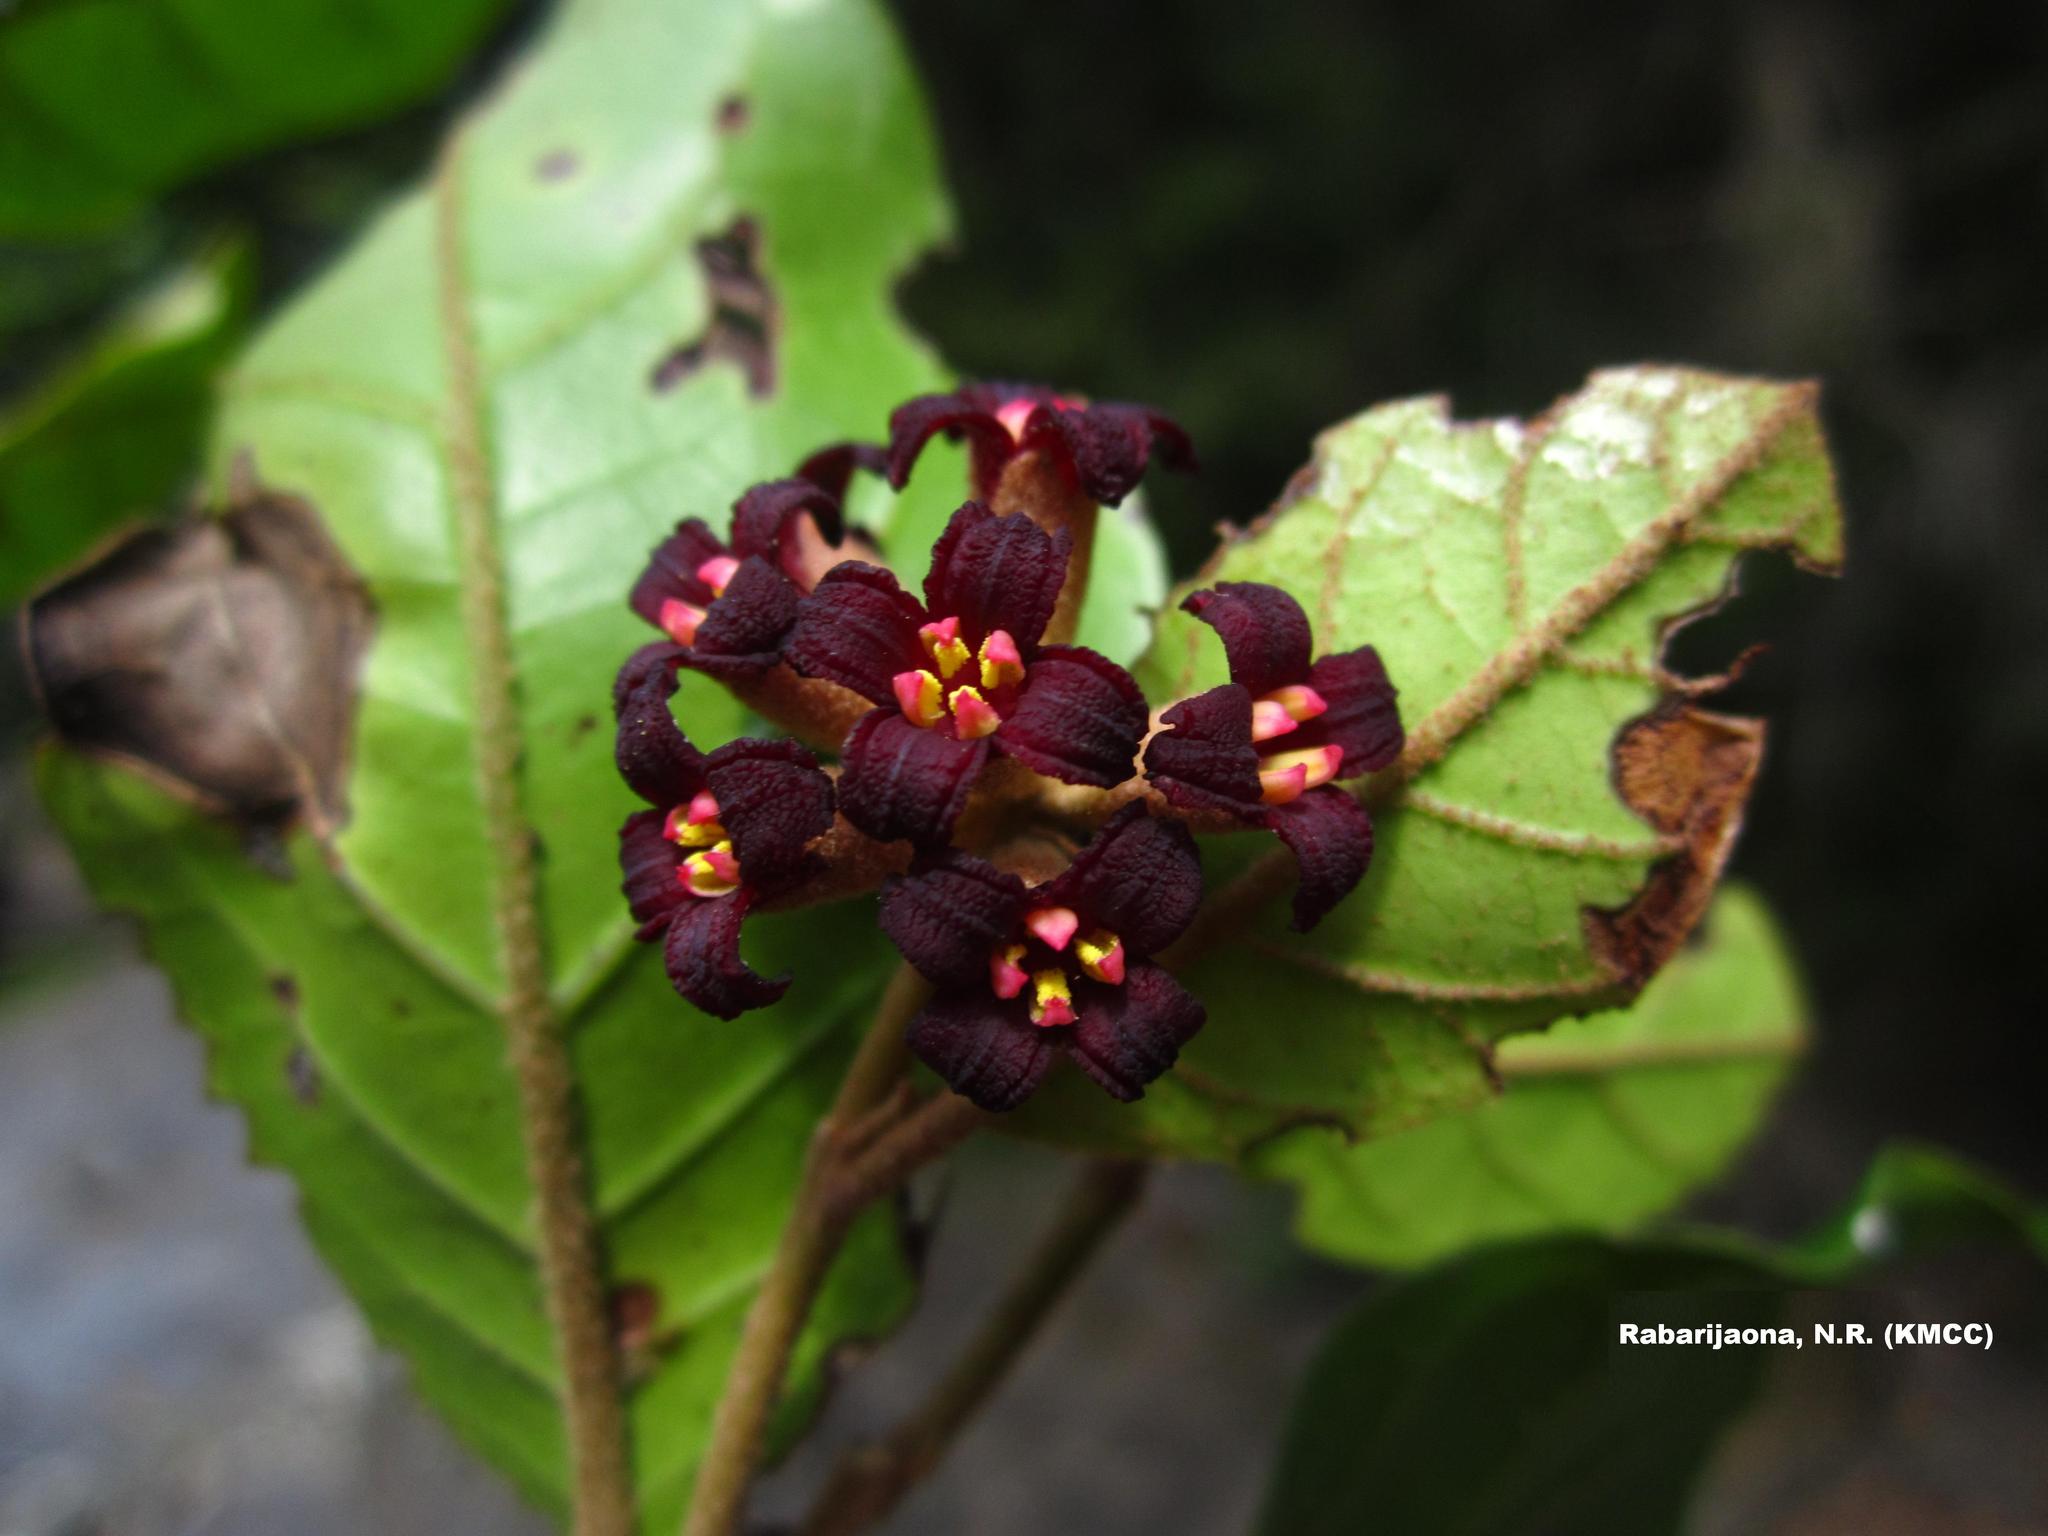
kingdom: Plantae
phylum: Tracheophyta
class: Magnoliopsida
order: Saxifragales
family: Hamamelidaceae
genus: Dicoryphe
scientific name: Dicoryphe buddleoides
